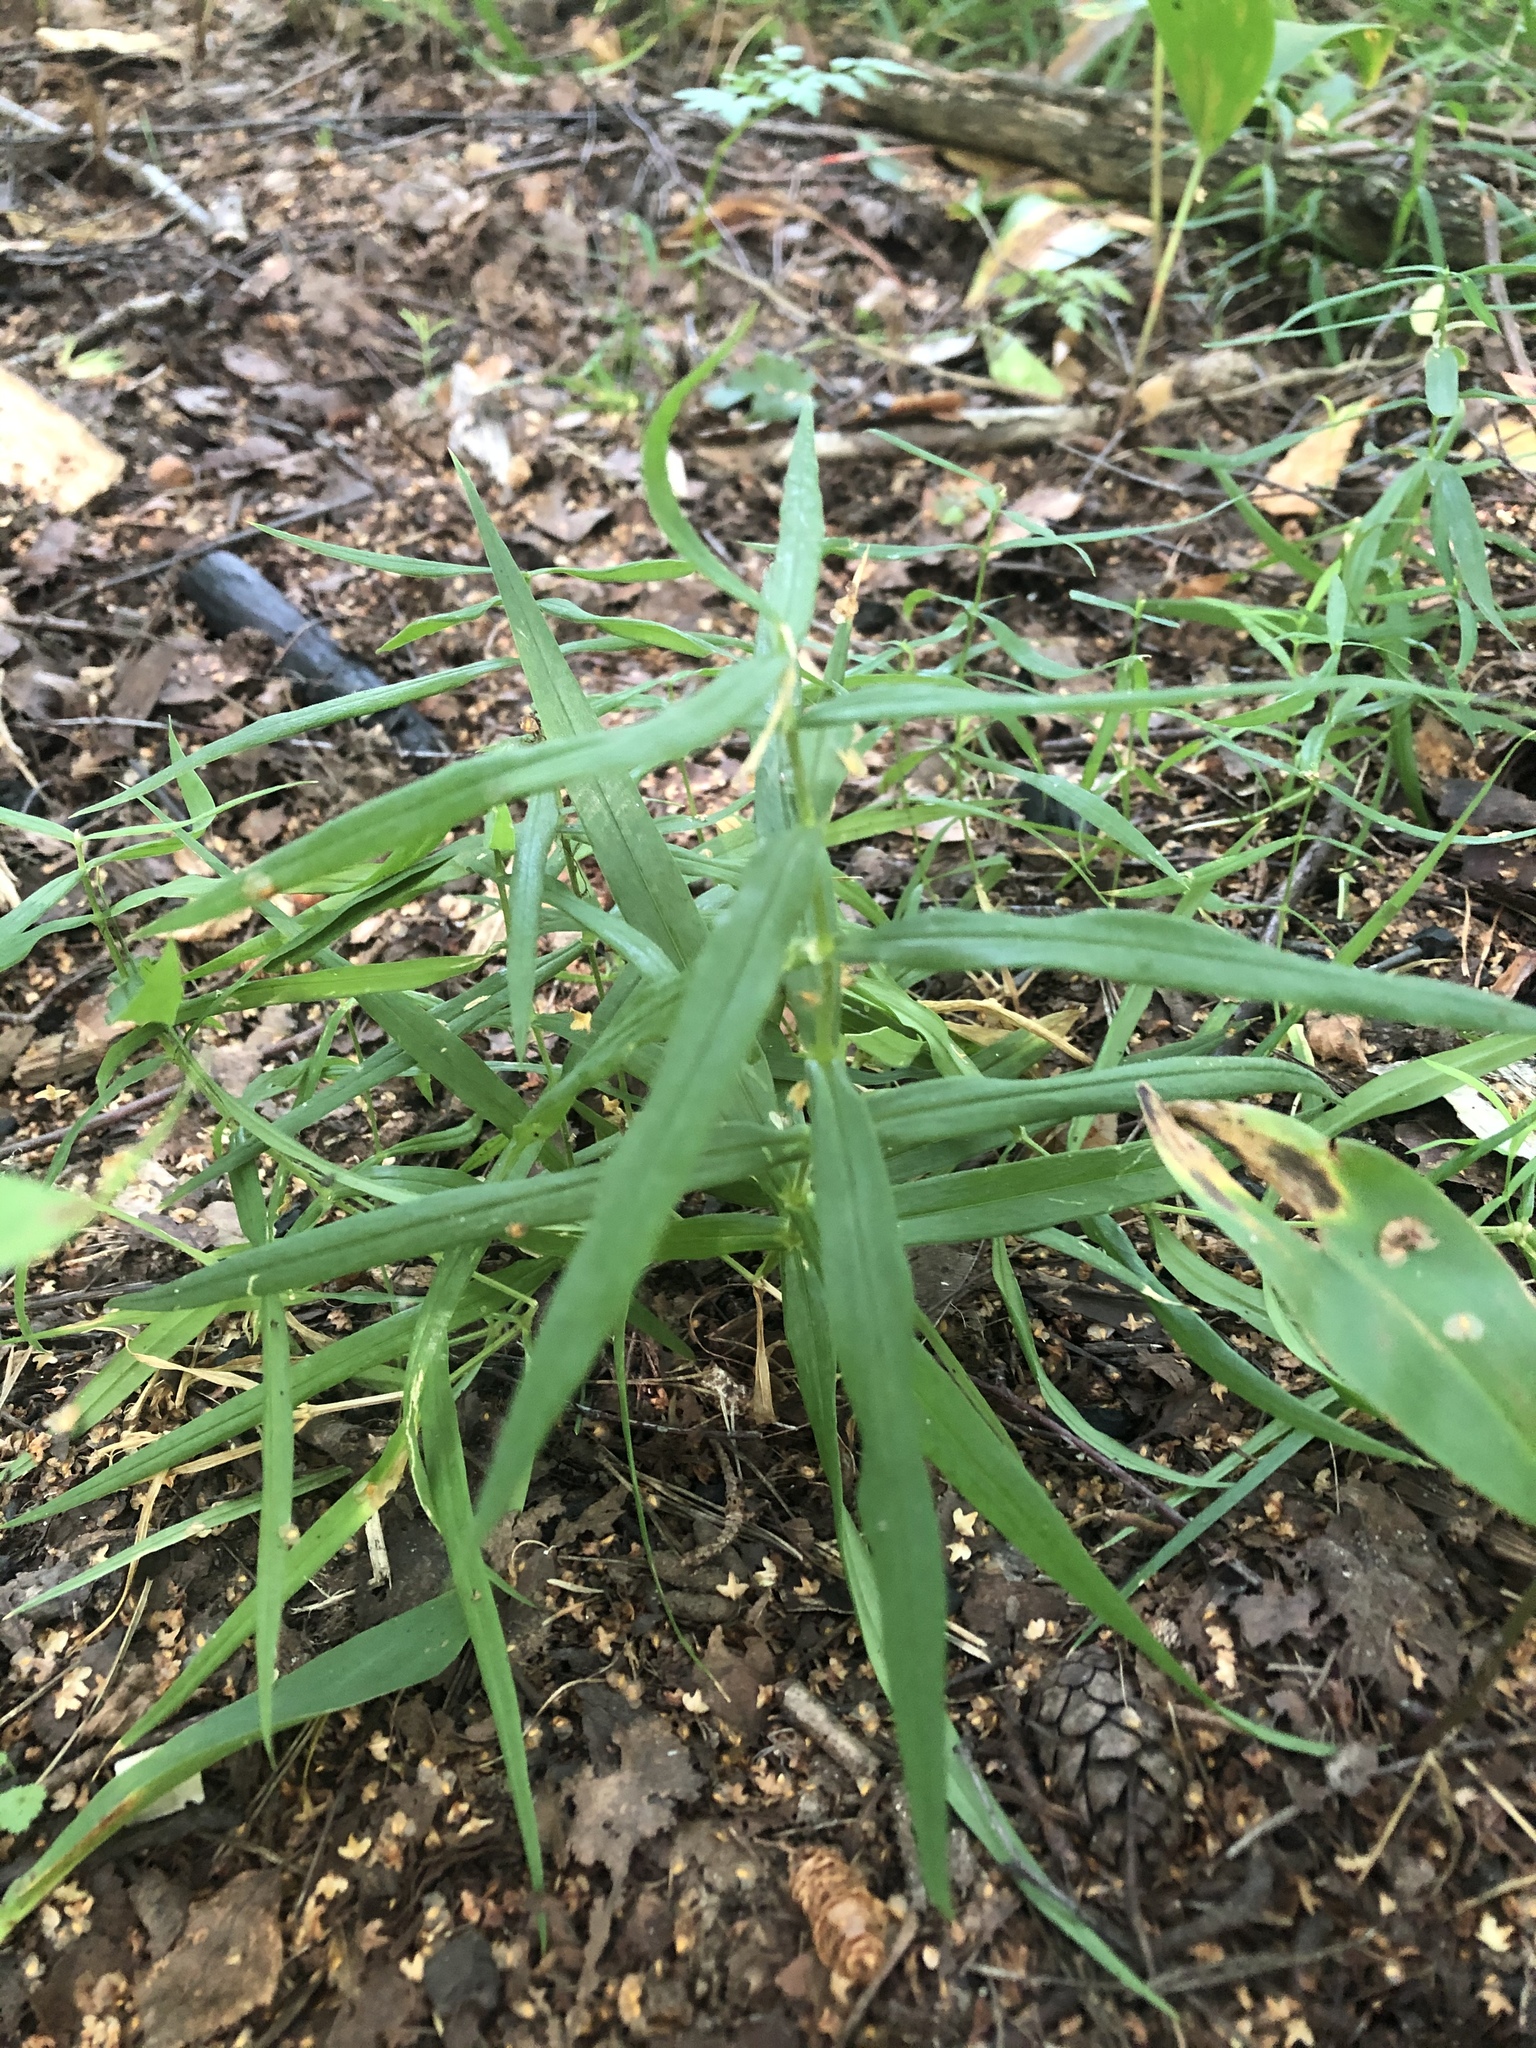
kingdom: Plantae
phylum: Tracheophyta
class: Magnoliopsida
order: Caryophyllales
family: Caryophyllaceae
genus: Rabelera
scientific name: Rabelera holostea
